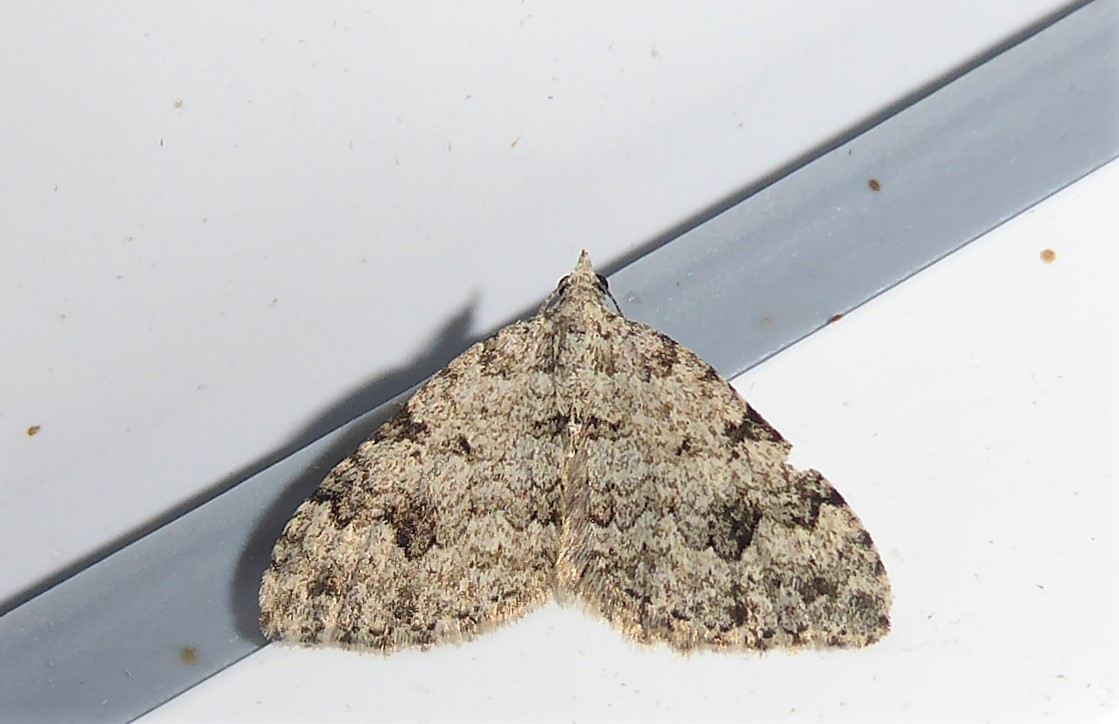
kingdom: Animalia
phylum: Arthropoda
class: Insecta
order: Lepidoptera
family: Geometridae
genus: Helastia
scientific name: Helastia cinerearia
